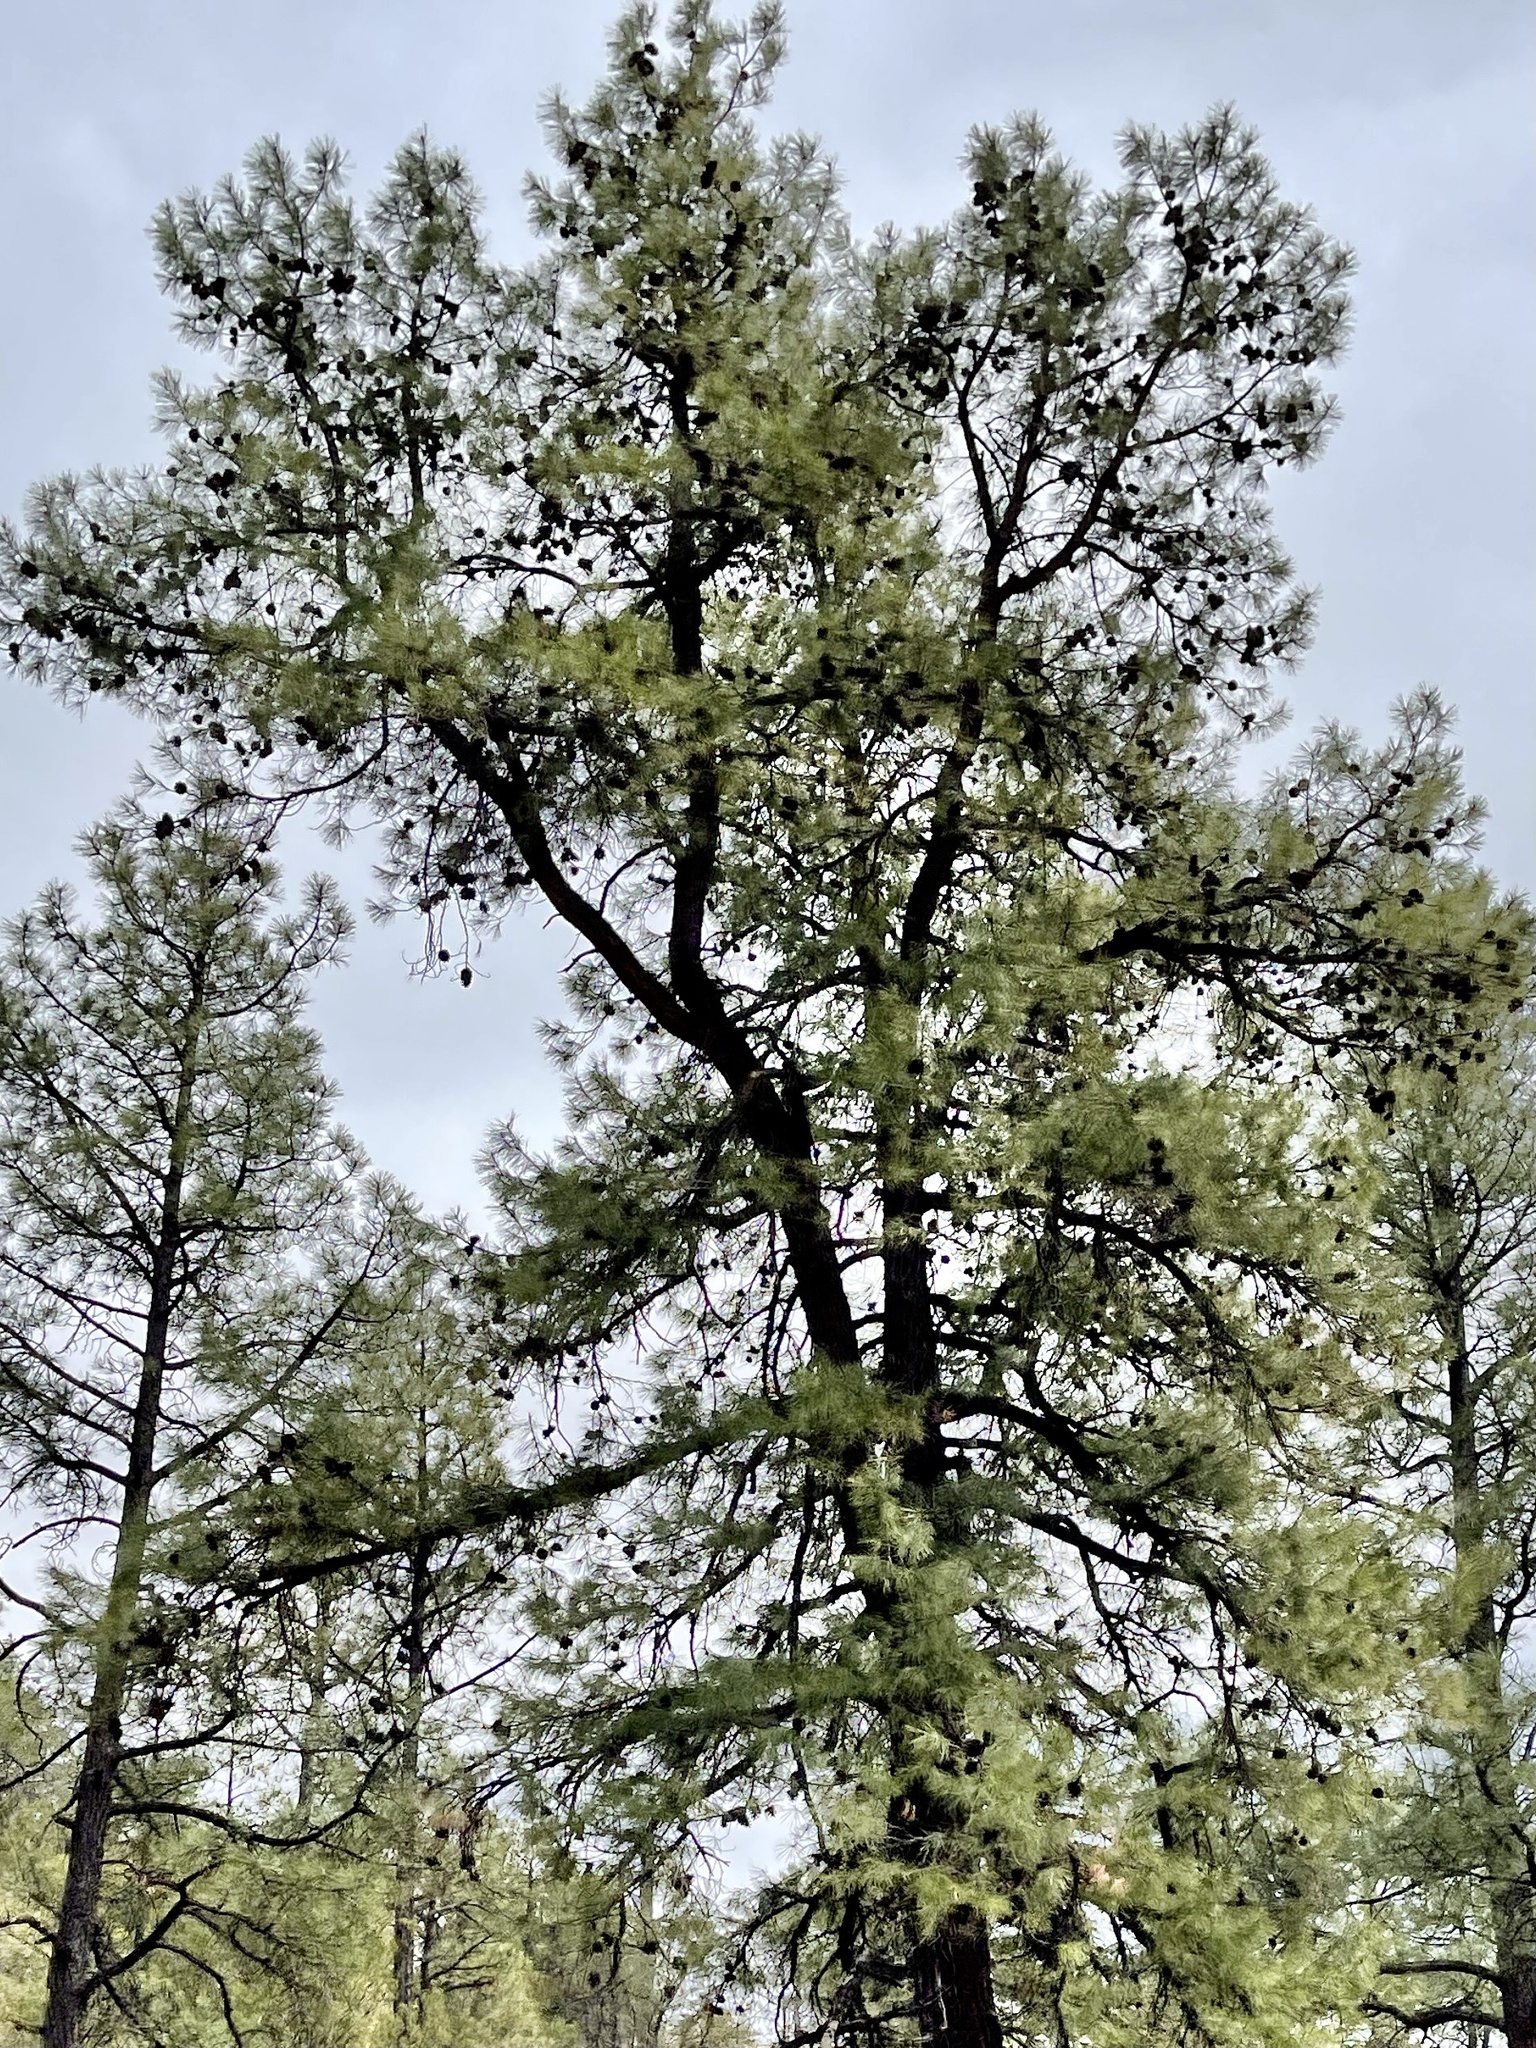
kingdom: Plantae
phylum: Tracheophyta
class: Pinopsida
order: Pinales
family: Pinaceae
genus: Pinus
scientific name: Pinus leiophylla
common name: Chihuahua pine
